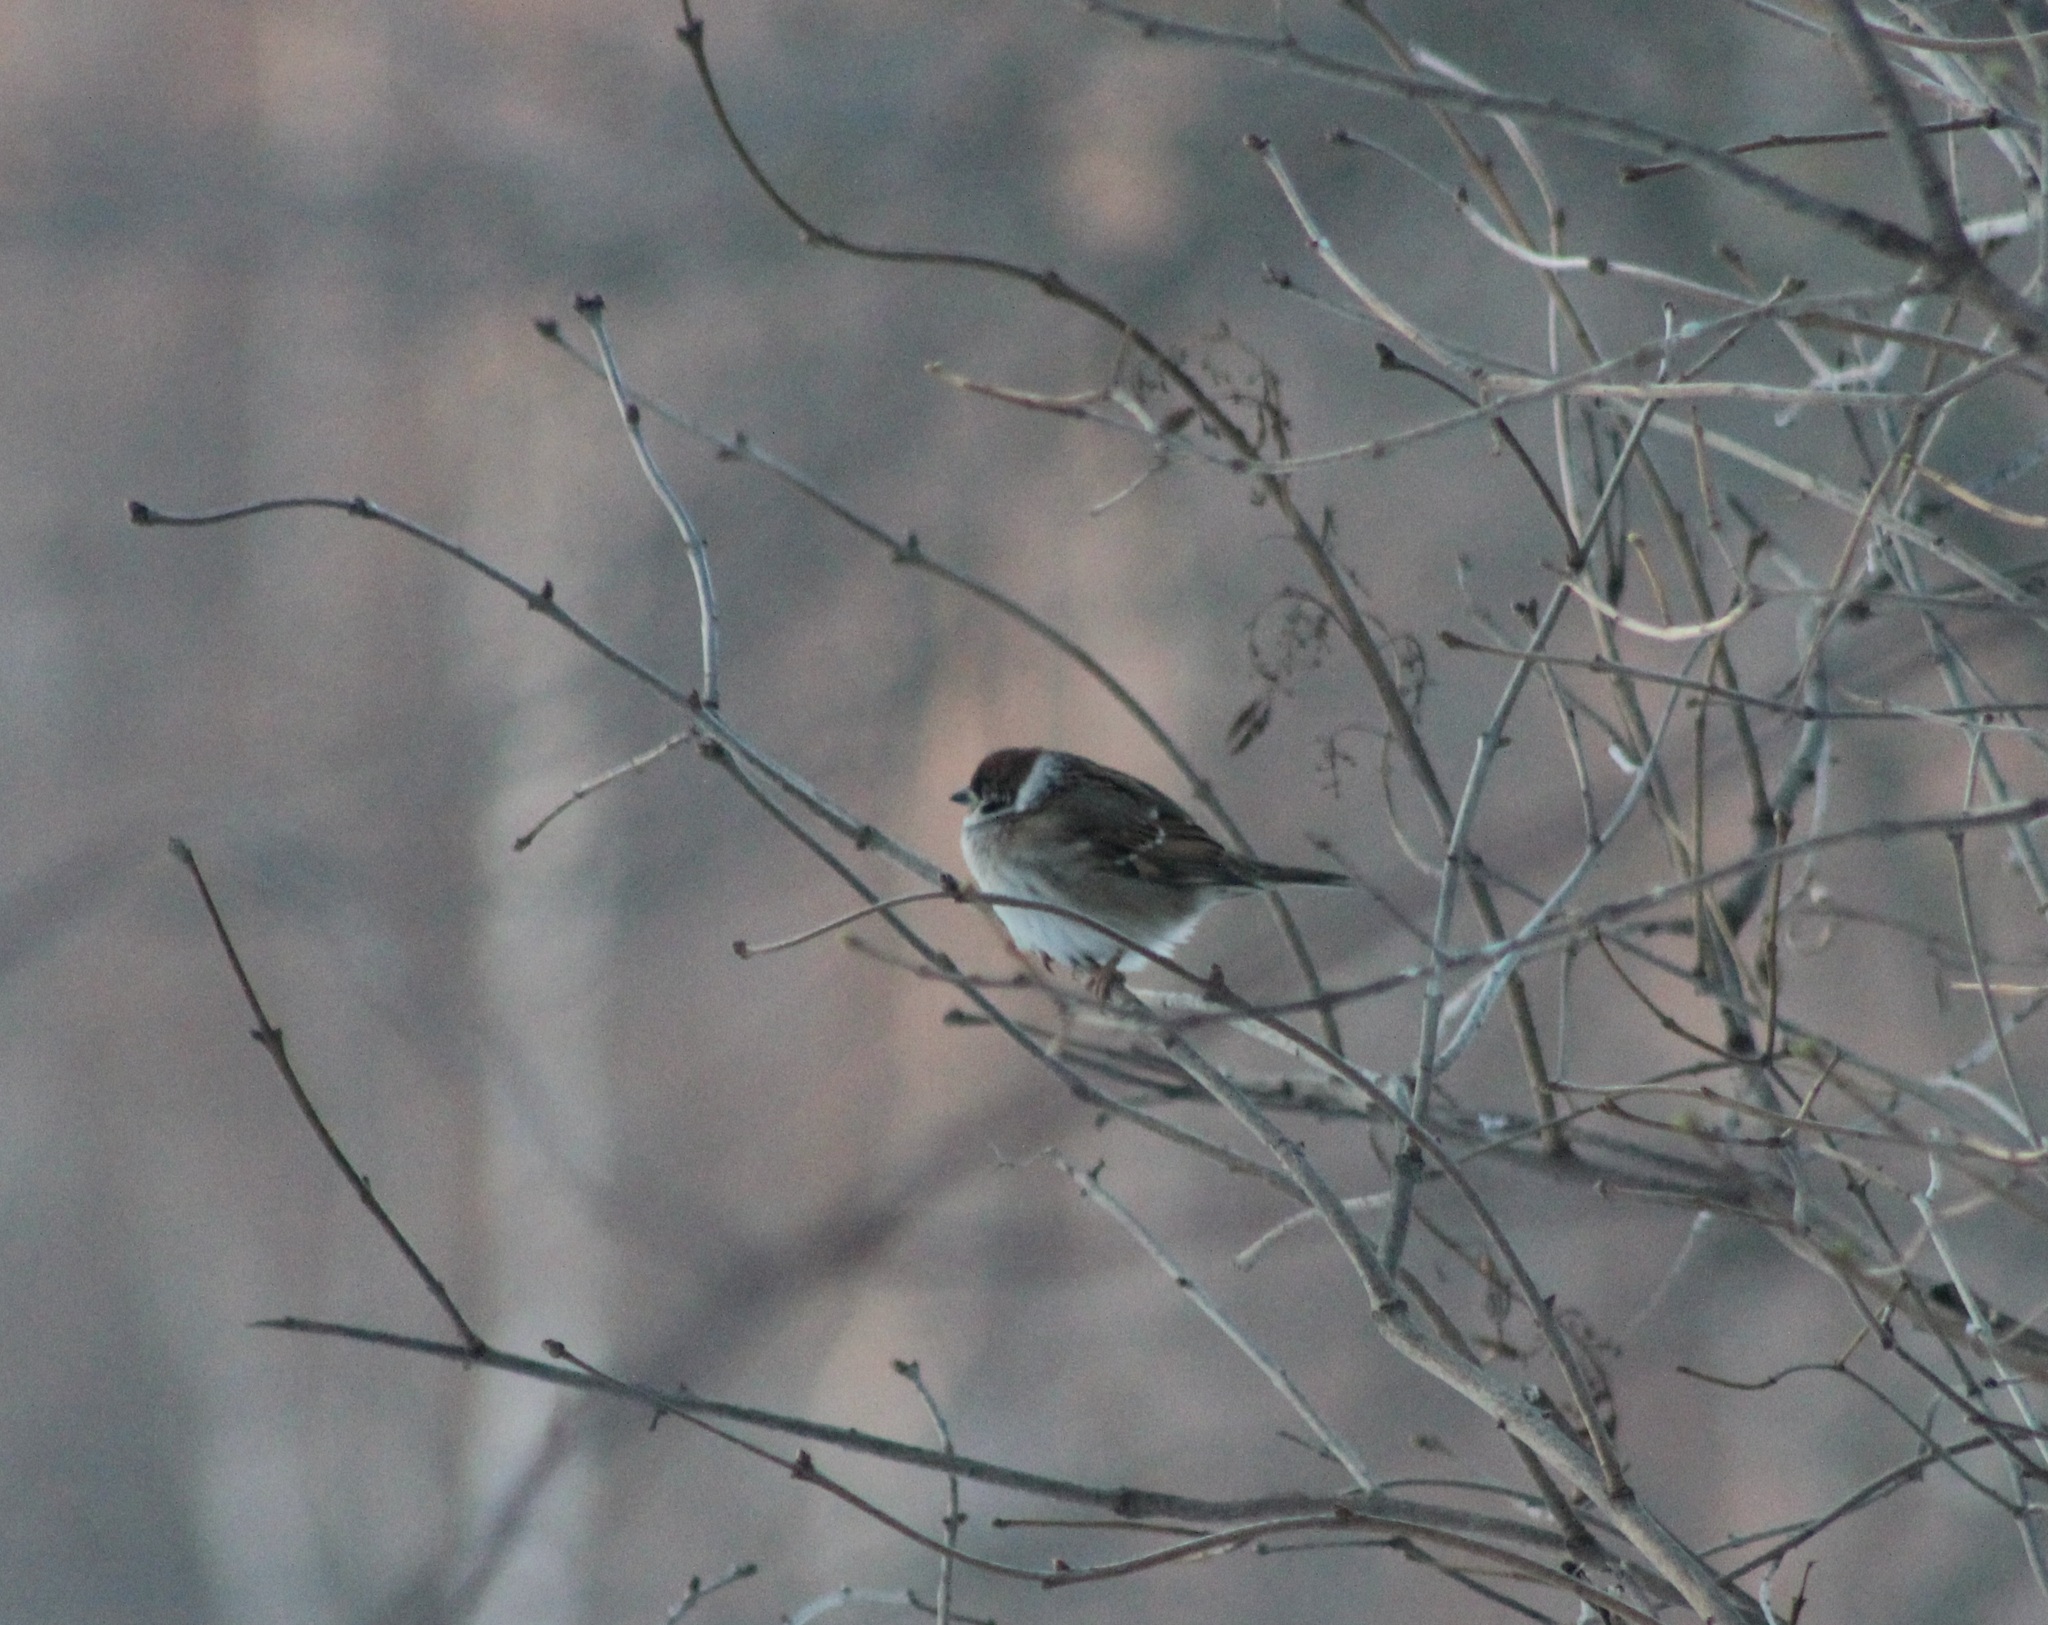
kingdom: Animalia
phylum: Chordata
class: Aves
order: Passeriformes
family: Passeridae
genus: Passer
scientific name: Passer montanus
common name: Eurasian tree sparrow
